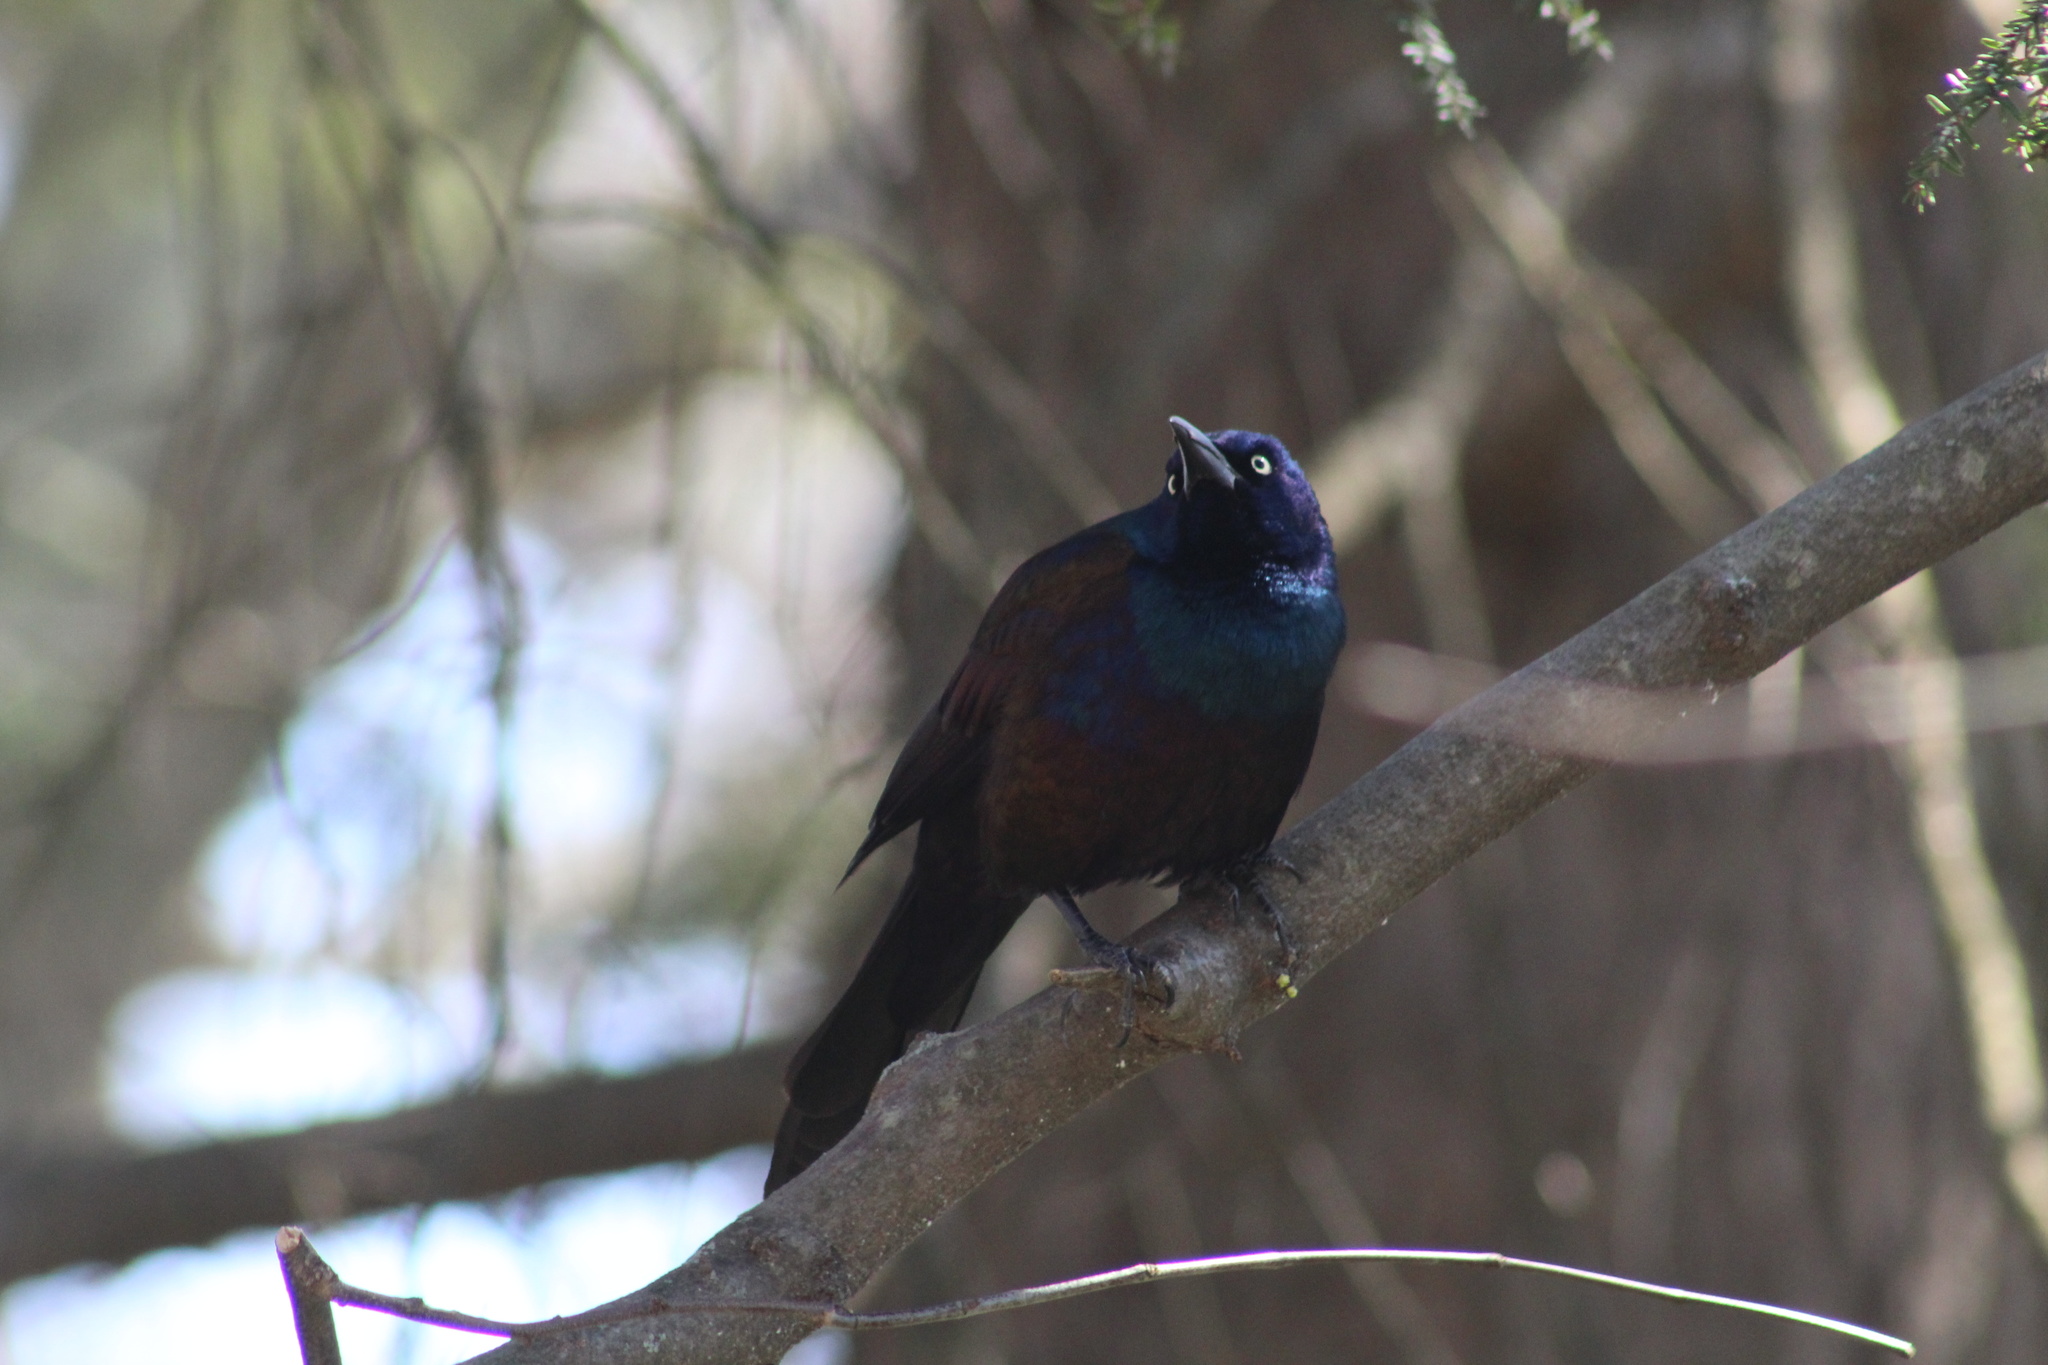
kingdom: Animalia
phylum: Chordata
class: Aves
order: Passeriformes
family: Icteridae
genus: Quiscalus
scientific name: Quiscalus quiscula
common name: Common grackle
